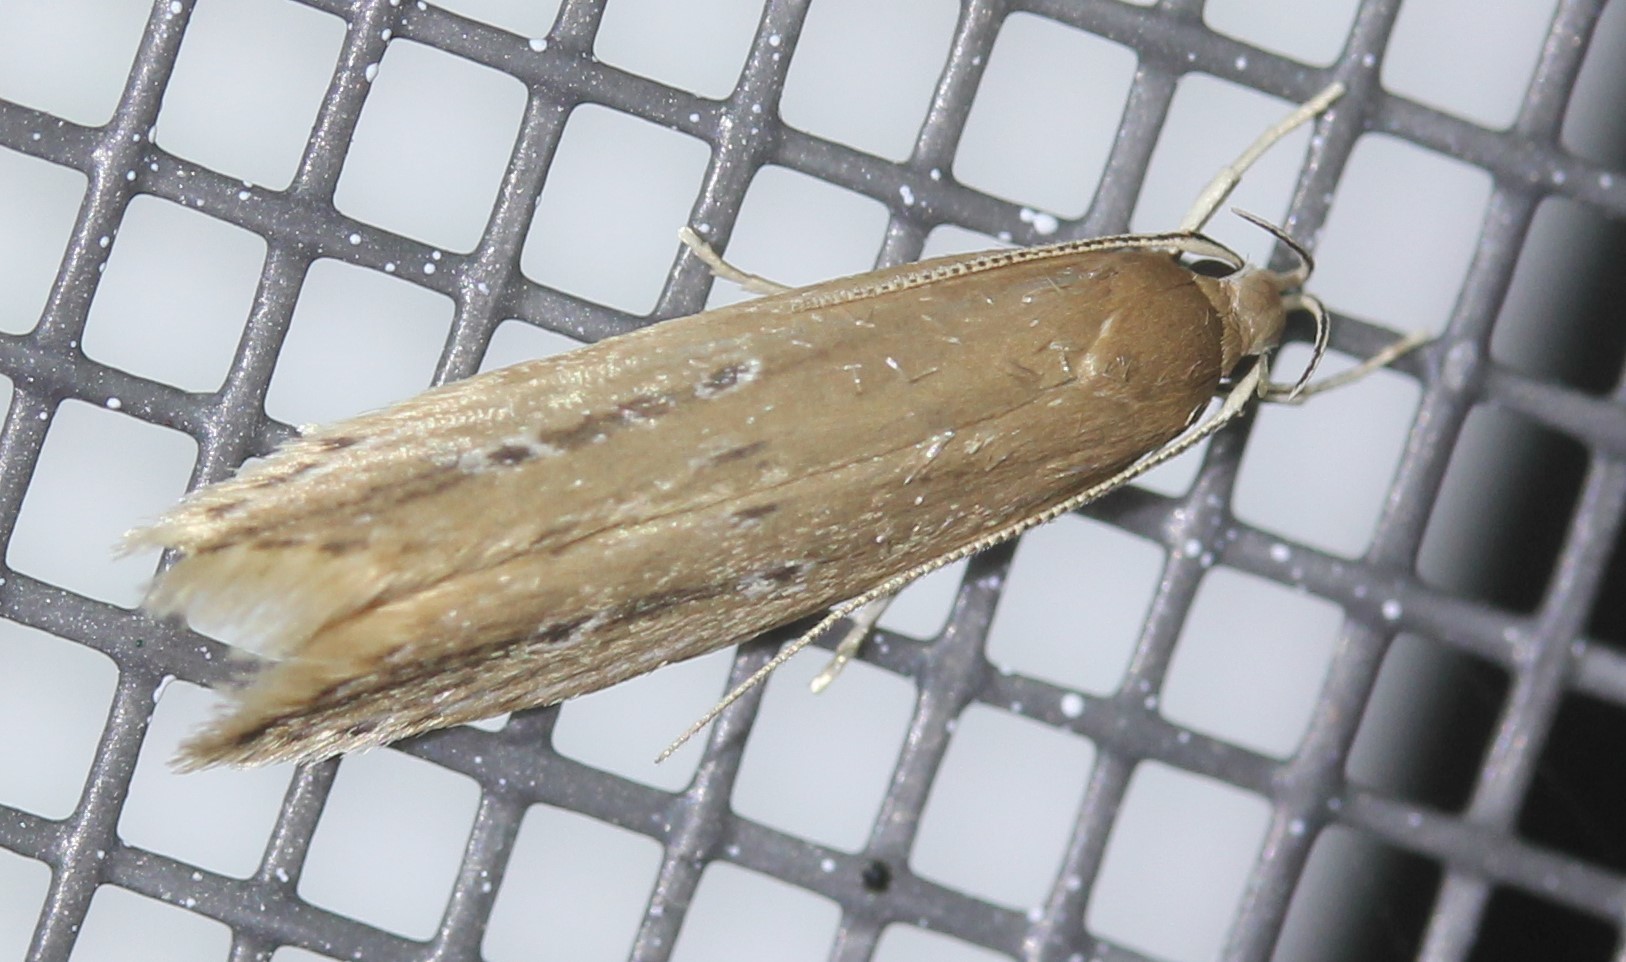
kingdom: Animalia
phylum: Arthropoda
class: Insecta
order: Lepidoptera
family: Cosmopterigidae
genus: Limnaecia
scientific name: Limnaecia phragmitella
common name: Bulrush cosmet
